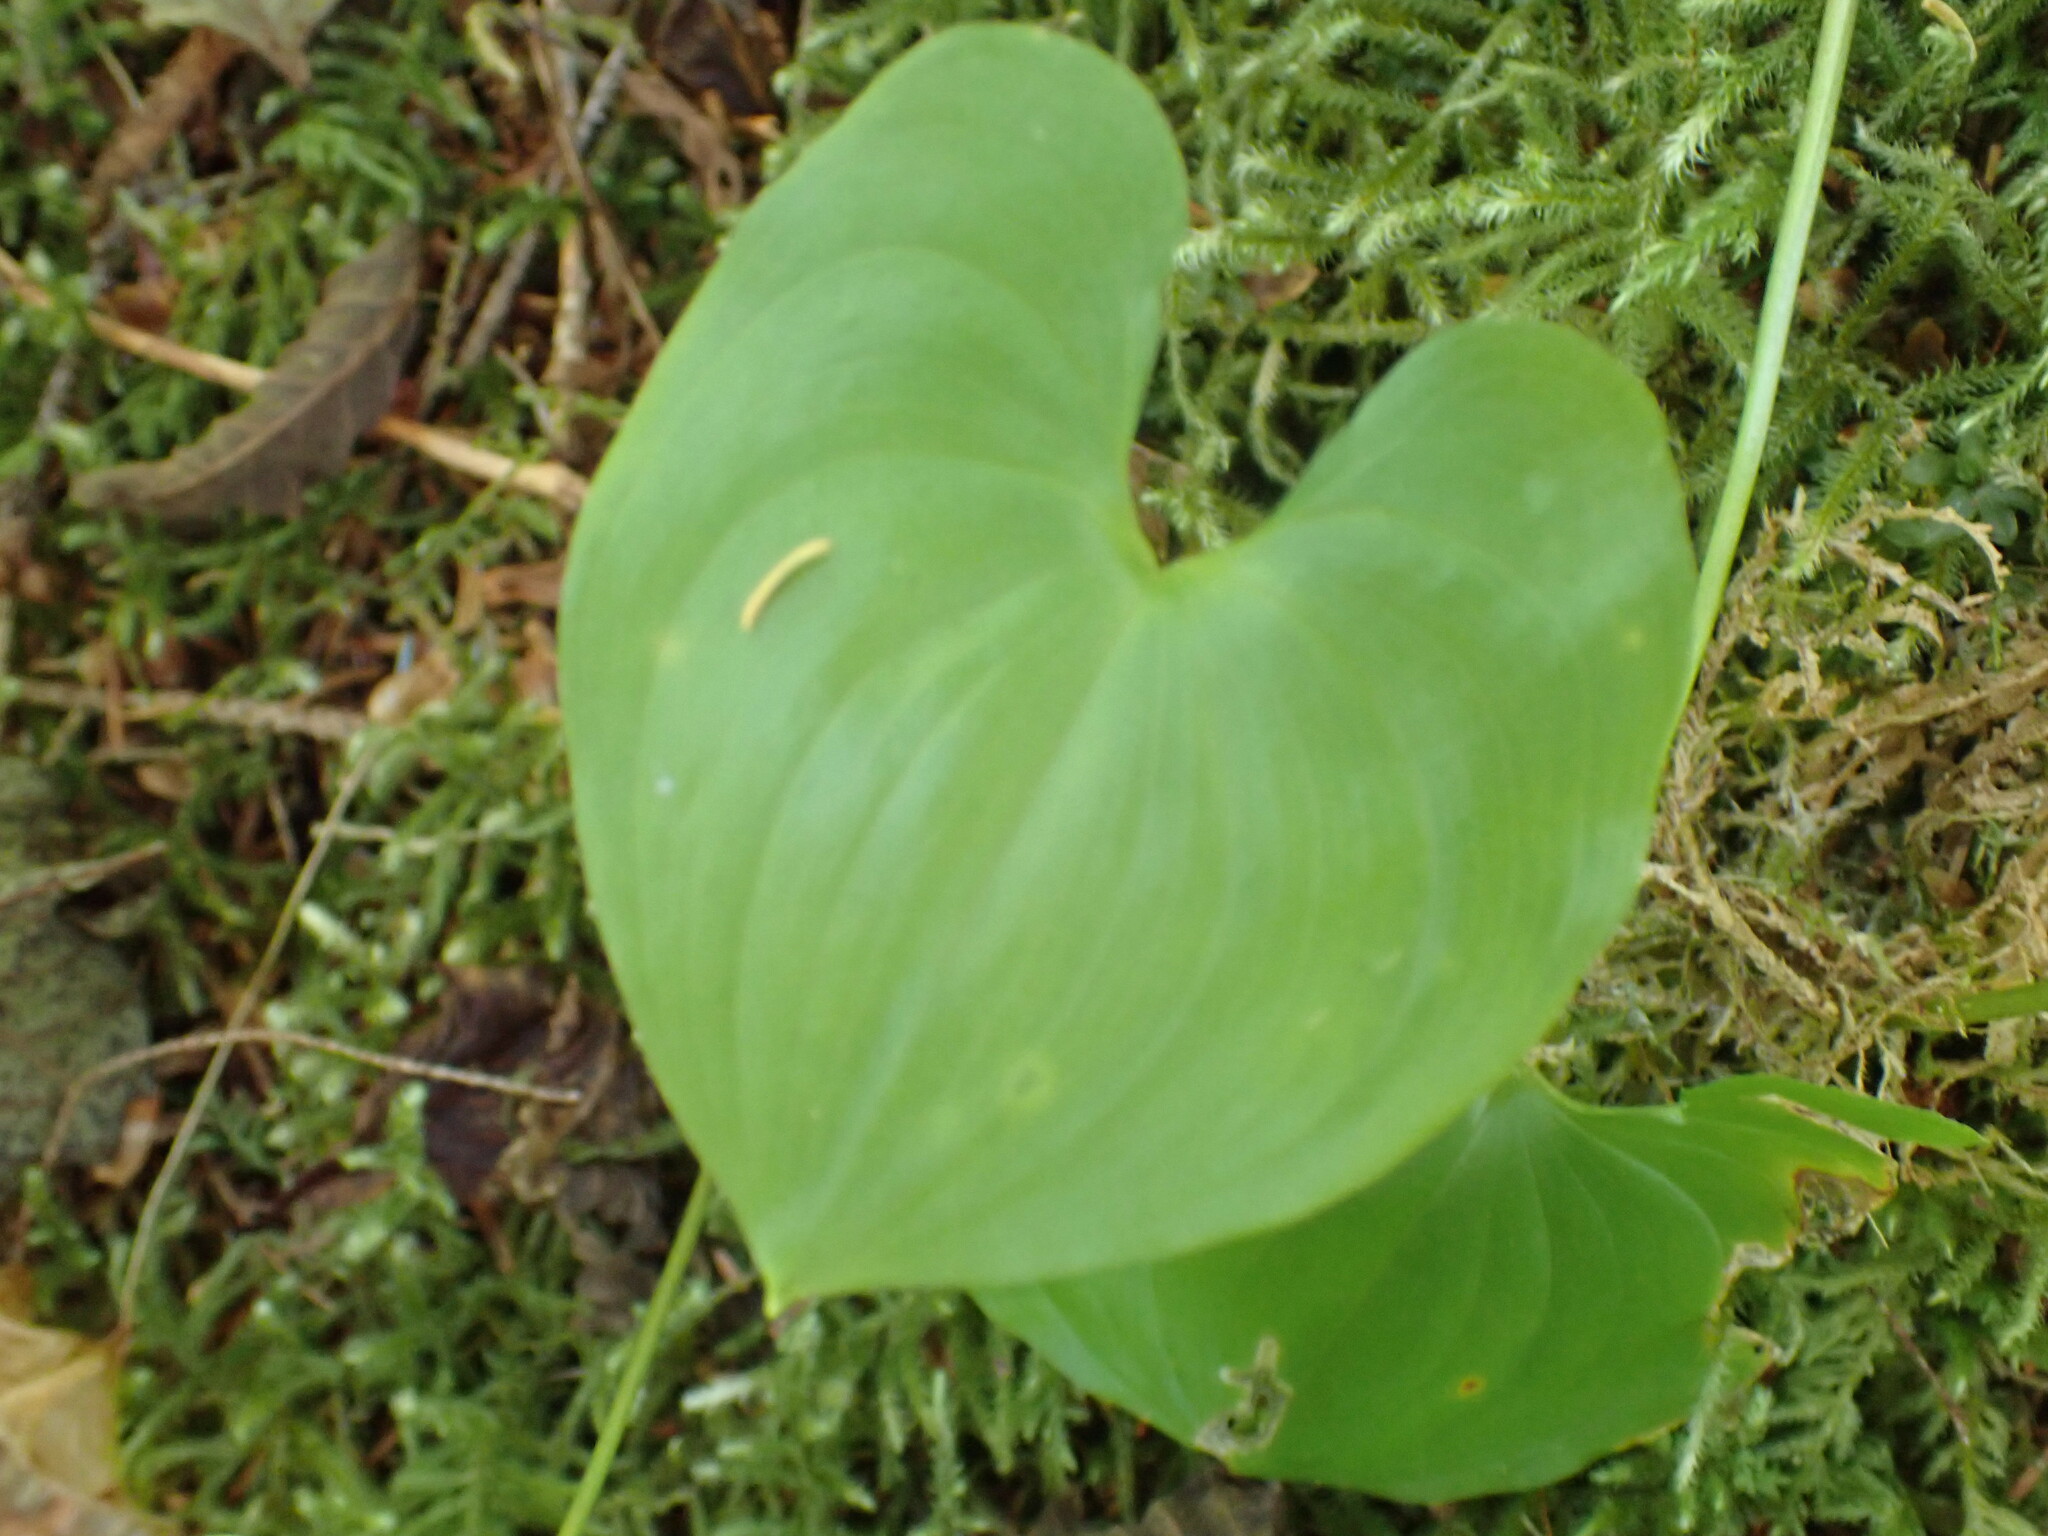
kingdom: Plantae
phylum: Tracheophyta
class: Liliopsida
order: Asparagales
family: Asparagaceae
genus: Maianthemum
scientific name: Maianthemum dilatatum
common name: False lily-of-the-valley
